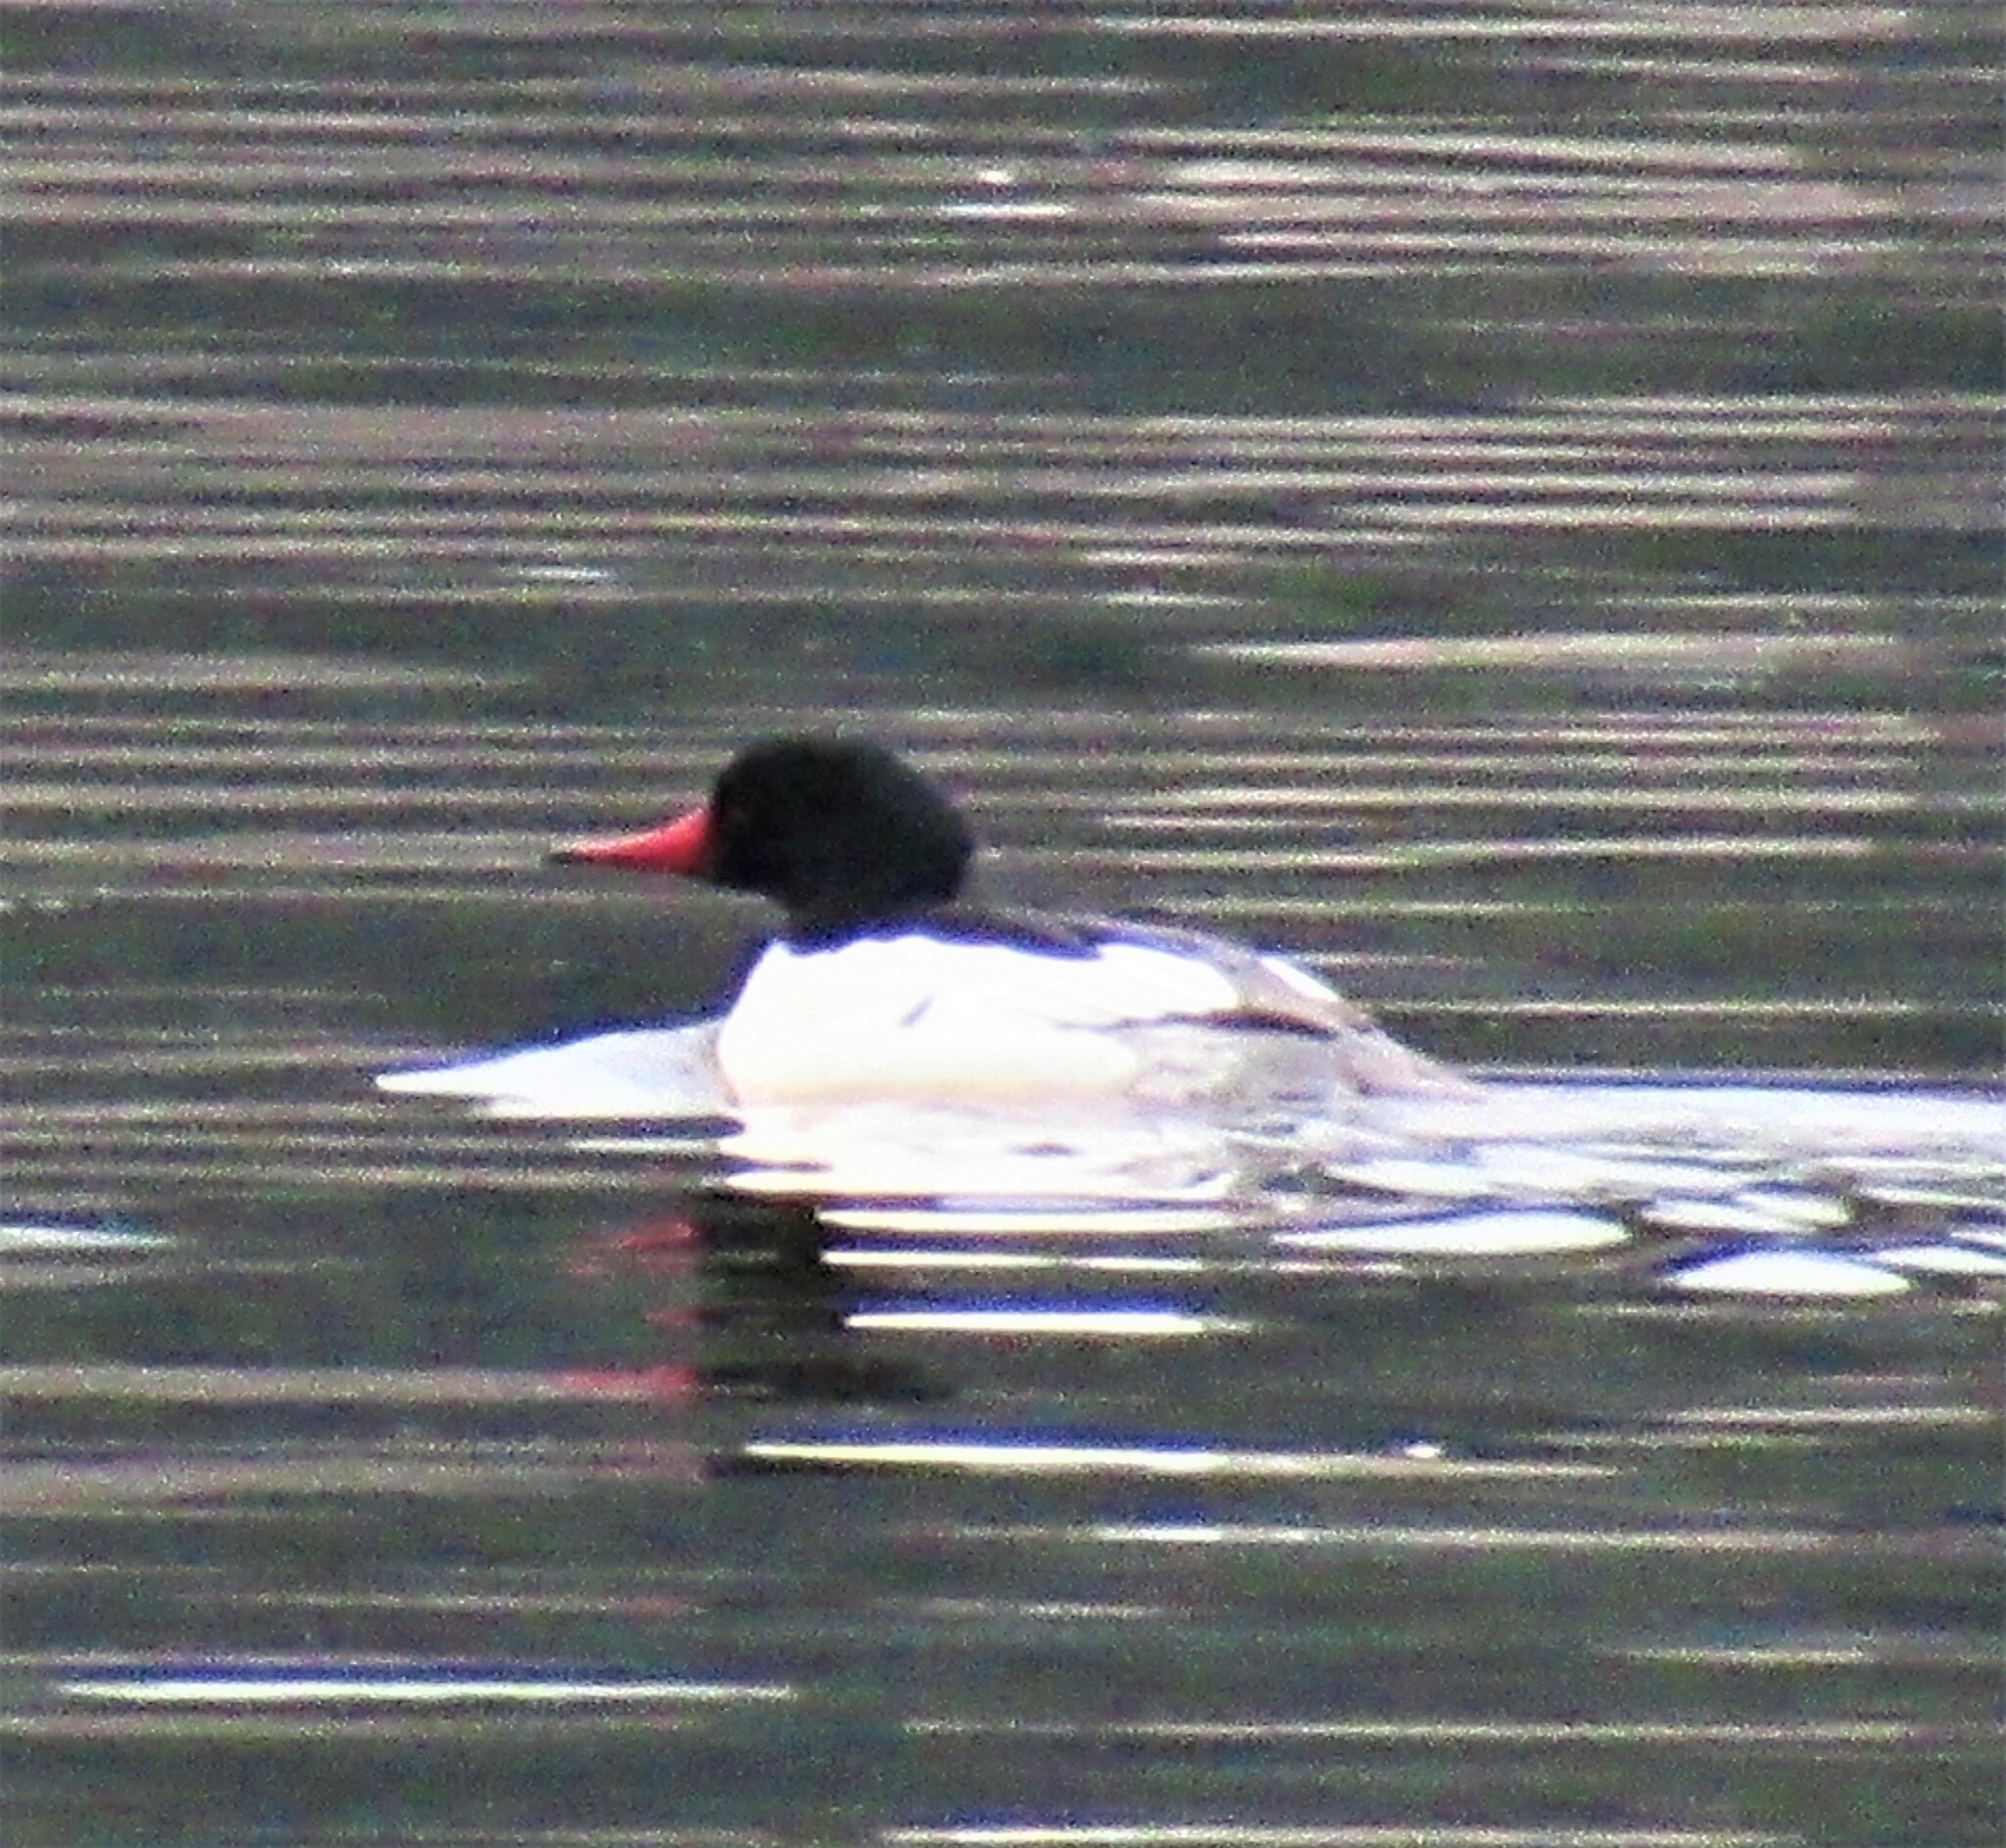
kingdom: Animalia
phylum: Chordata
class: Aves
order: Anseriformes
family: Anatidae
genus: Mergus
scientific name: Mergus merganser
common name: Common merganser
